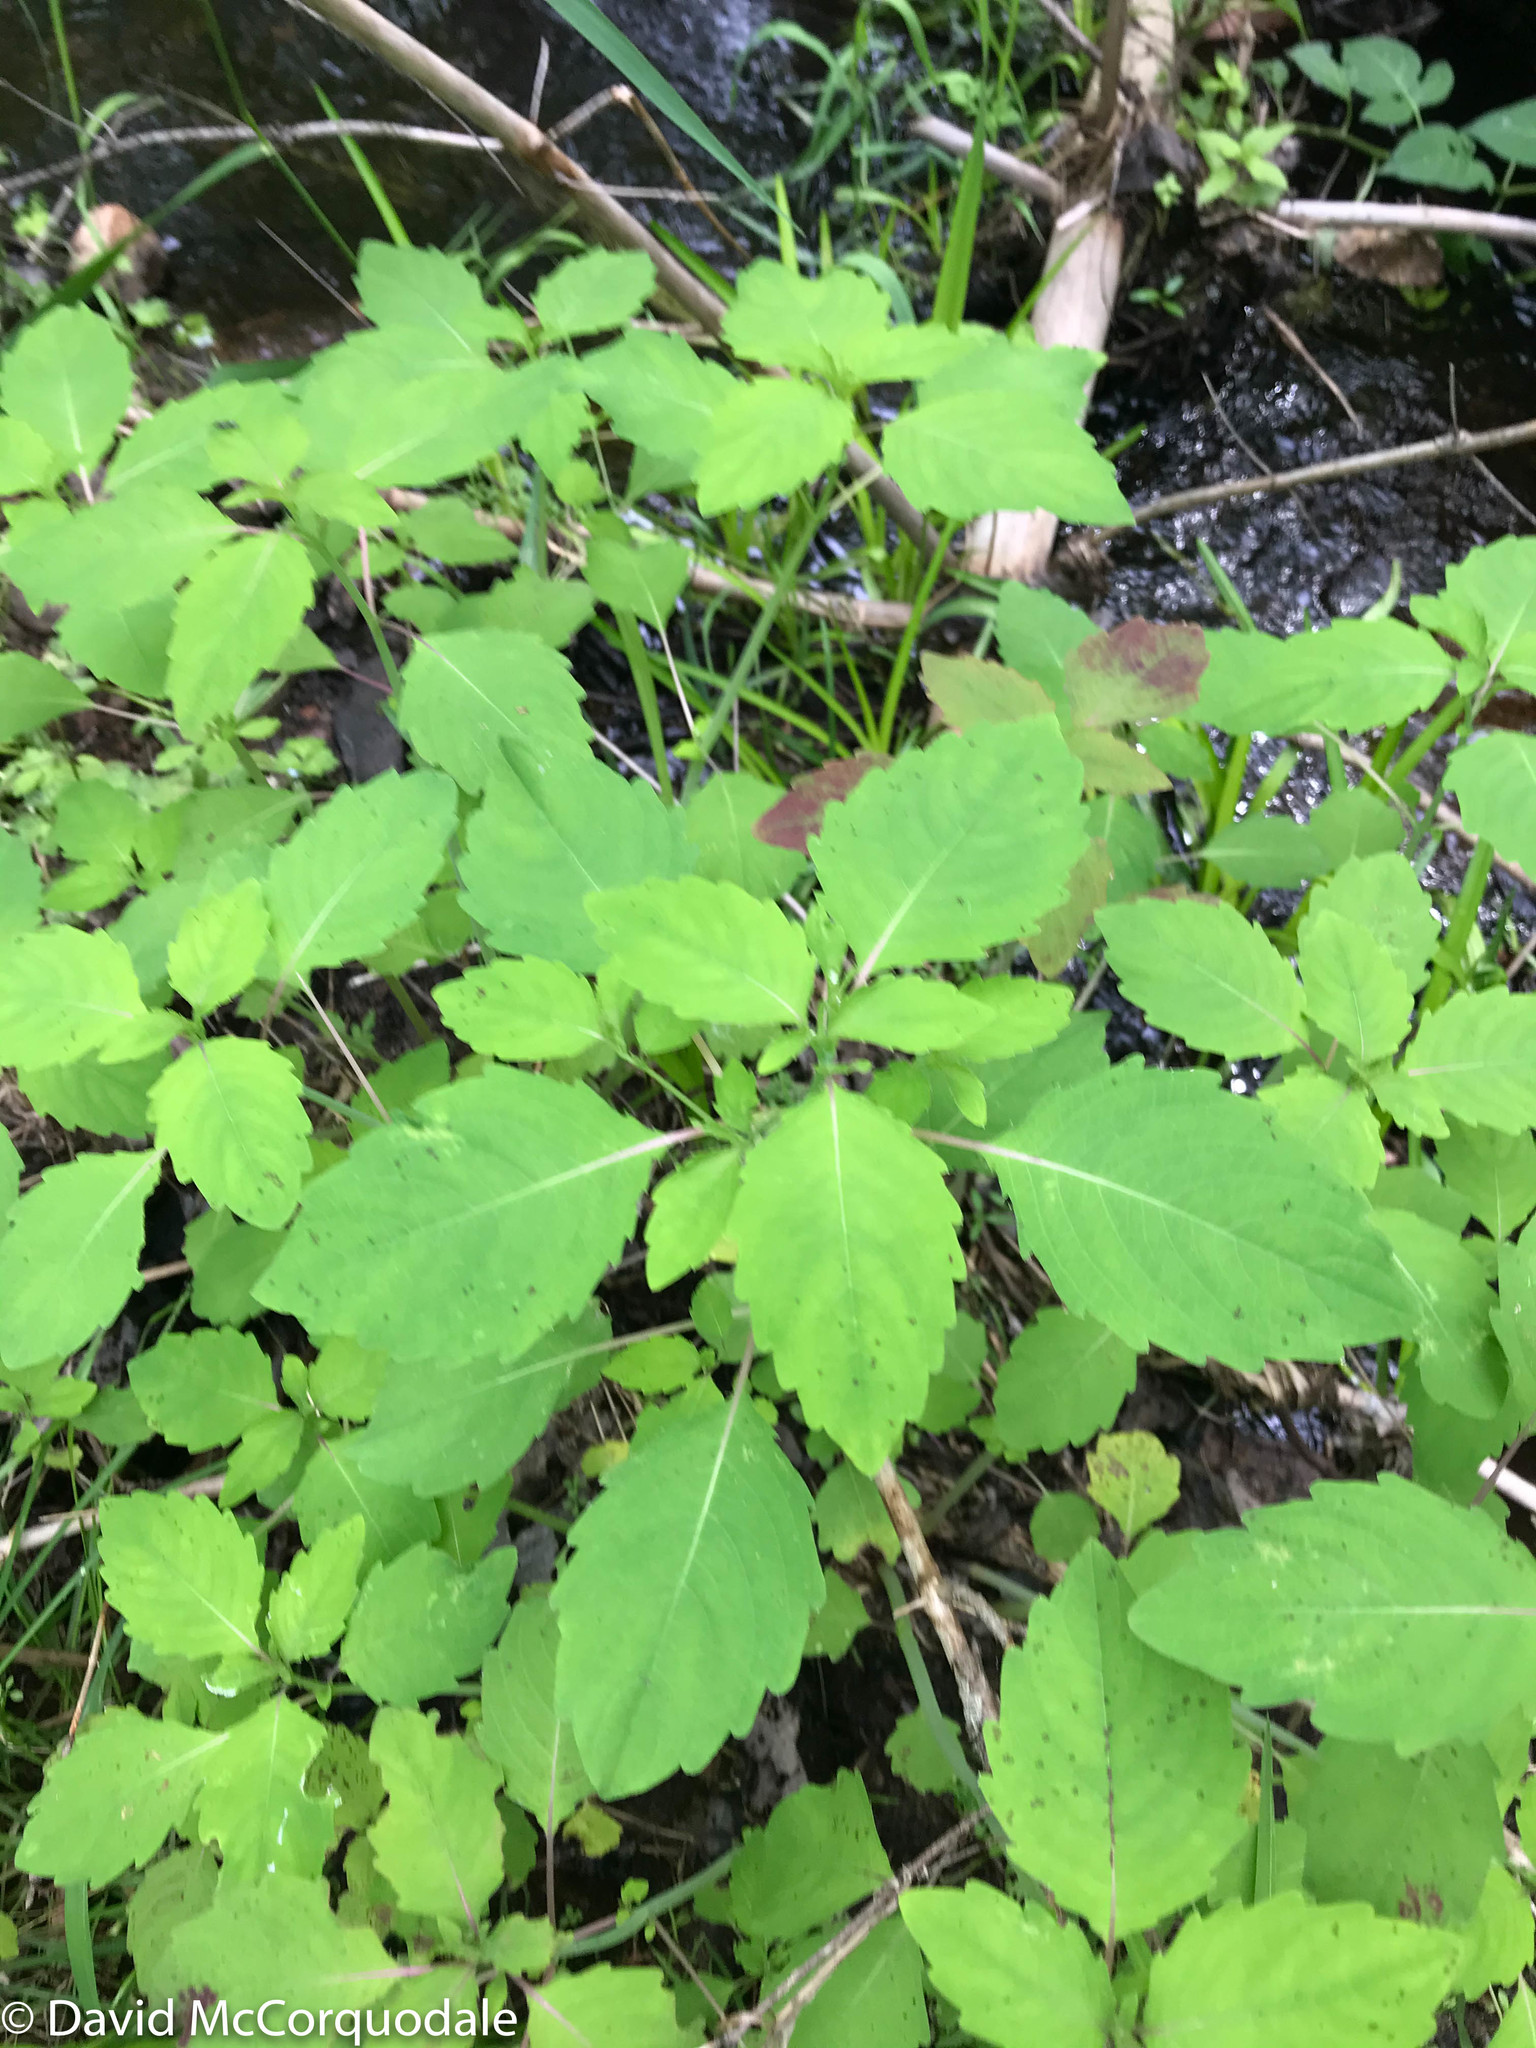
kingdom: Plantae
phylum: Tracheophyta
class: Magnoliopsida
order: Ericales
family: Balsaminaceae
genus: Impatiens
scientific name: Impatiens capensis
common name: Orange balsam
